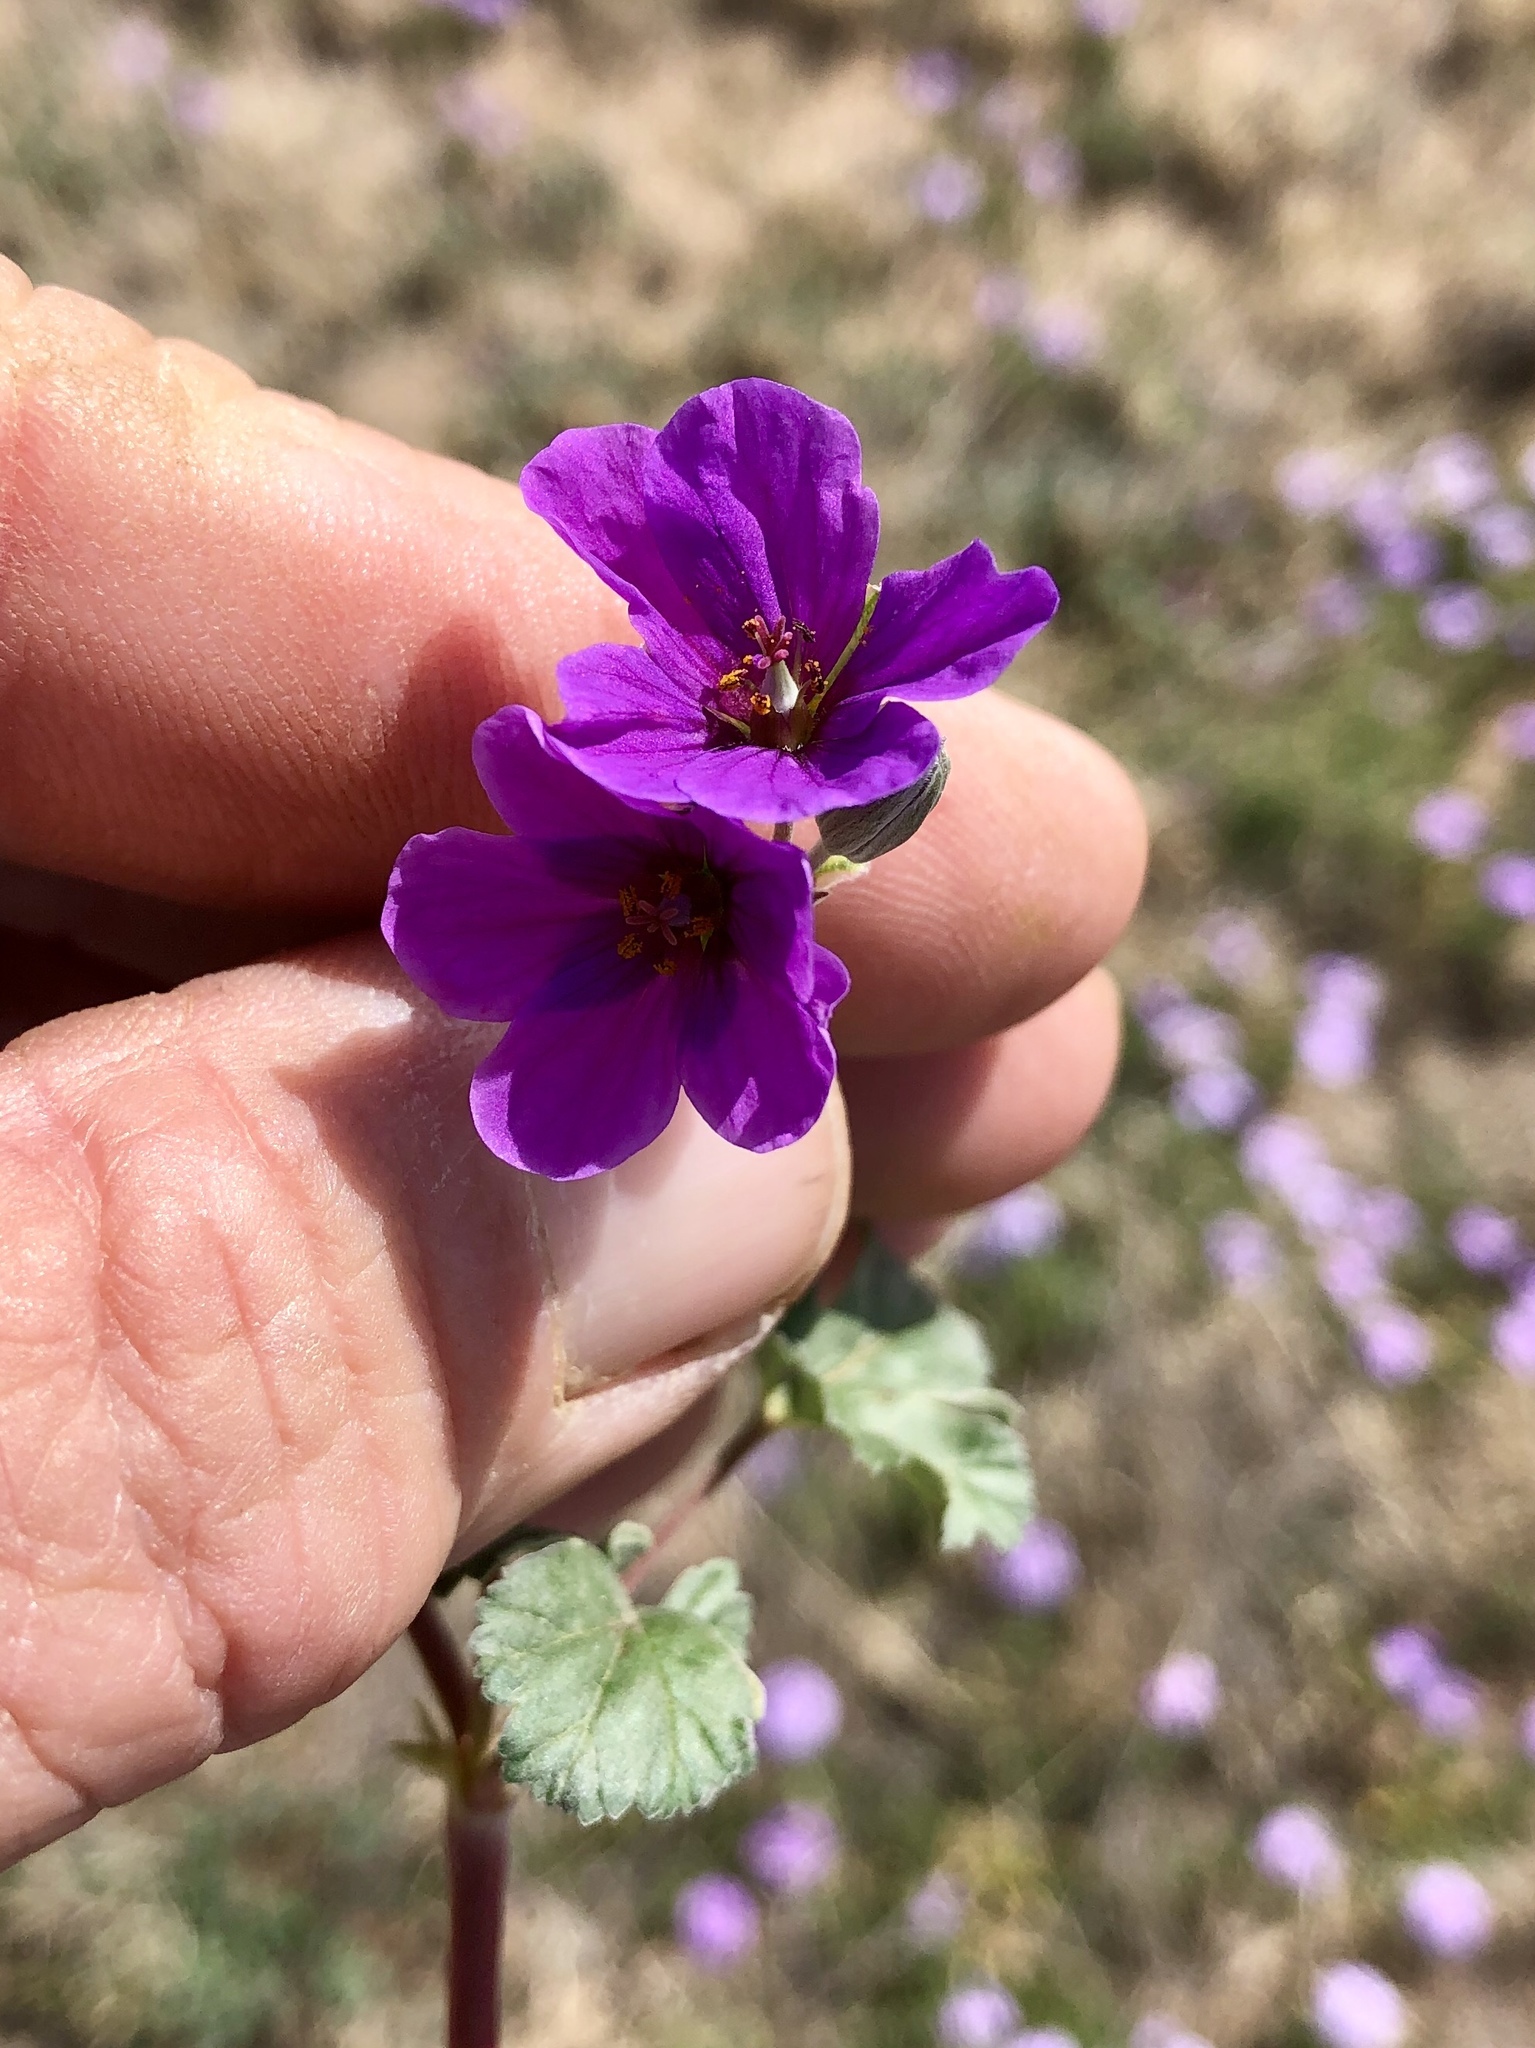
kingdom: Plantae
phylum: Tracheophyta
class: Magnoliopsida
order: Geraniales
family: Geraniaceae
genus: Erodium
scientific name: Erodium texanum
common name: Texas stork's-bill
